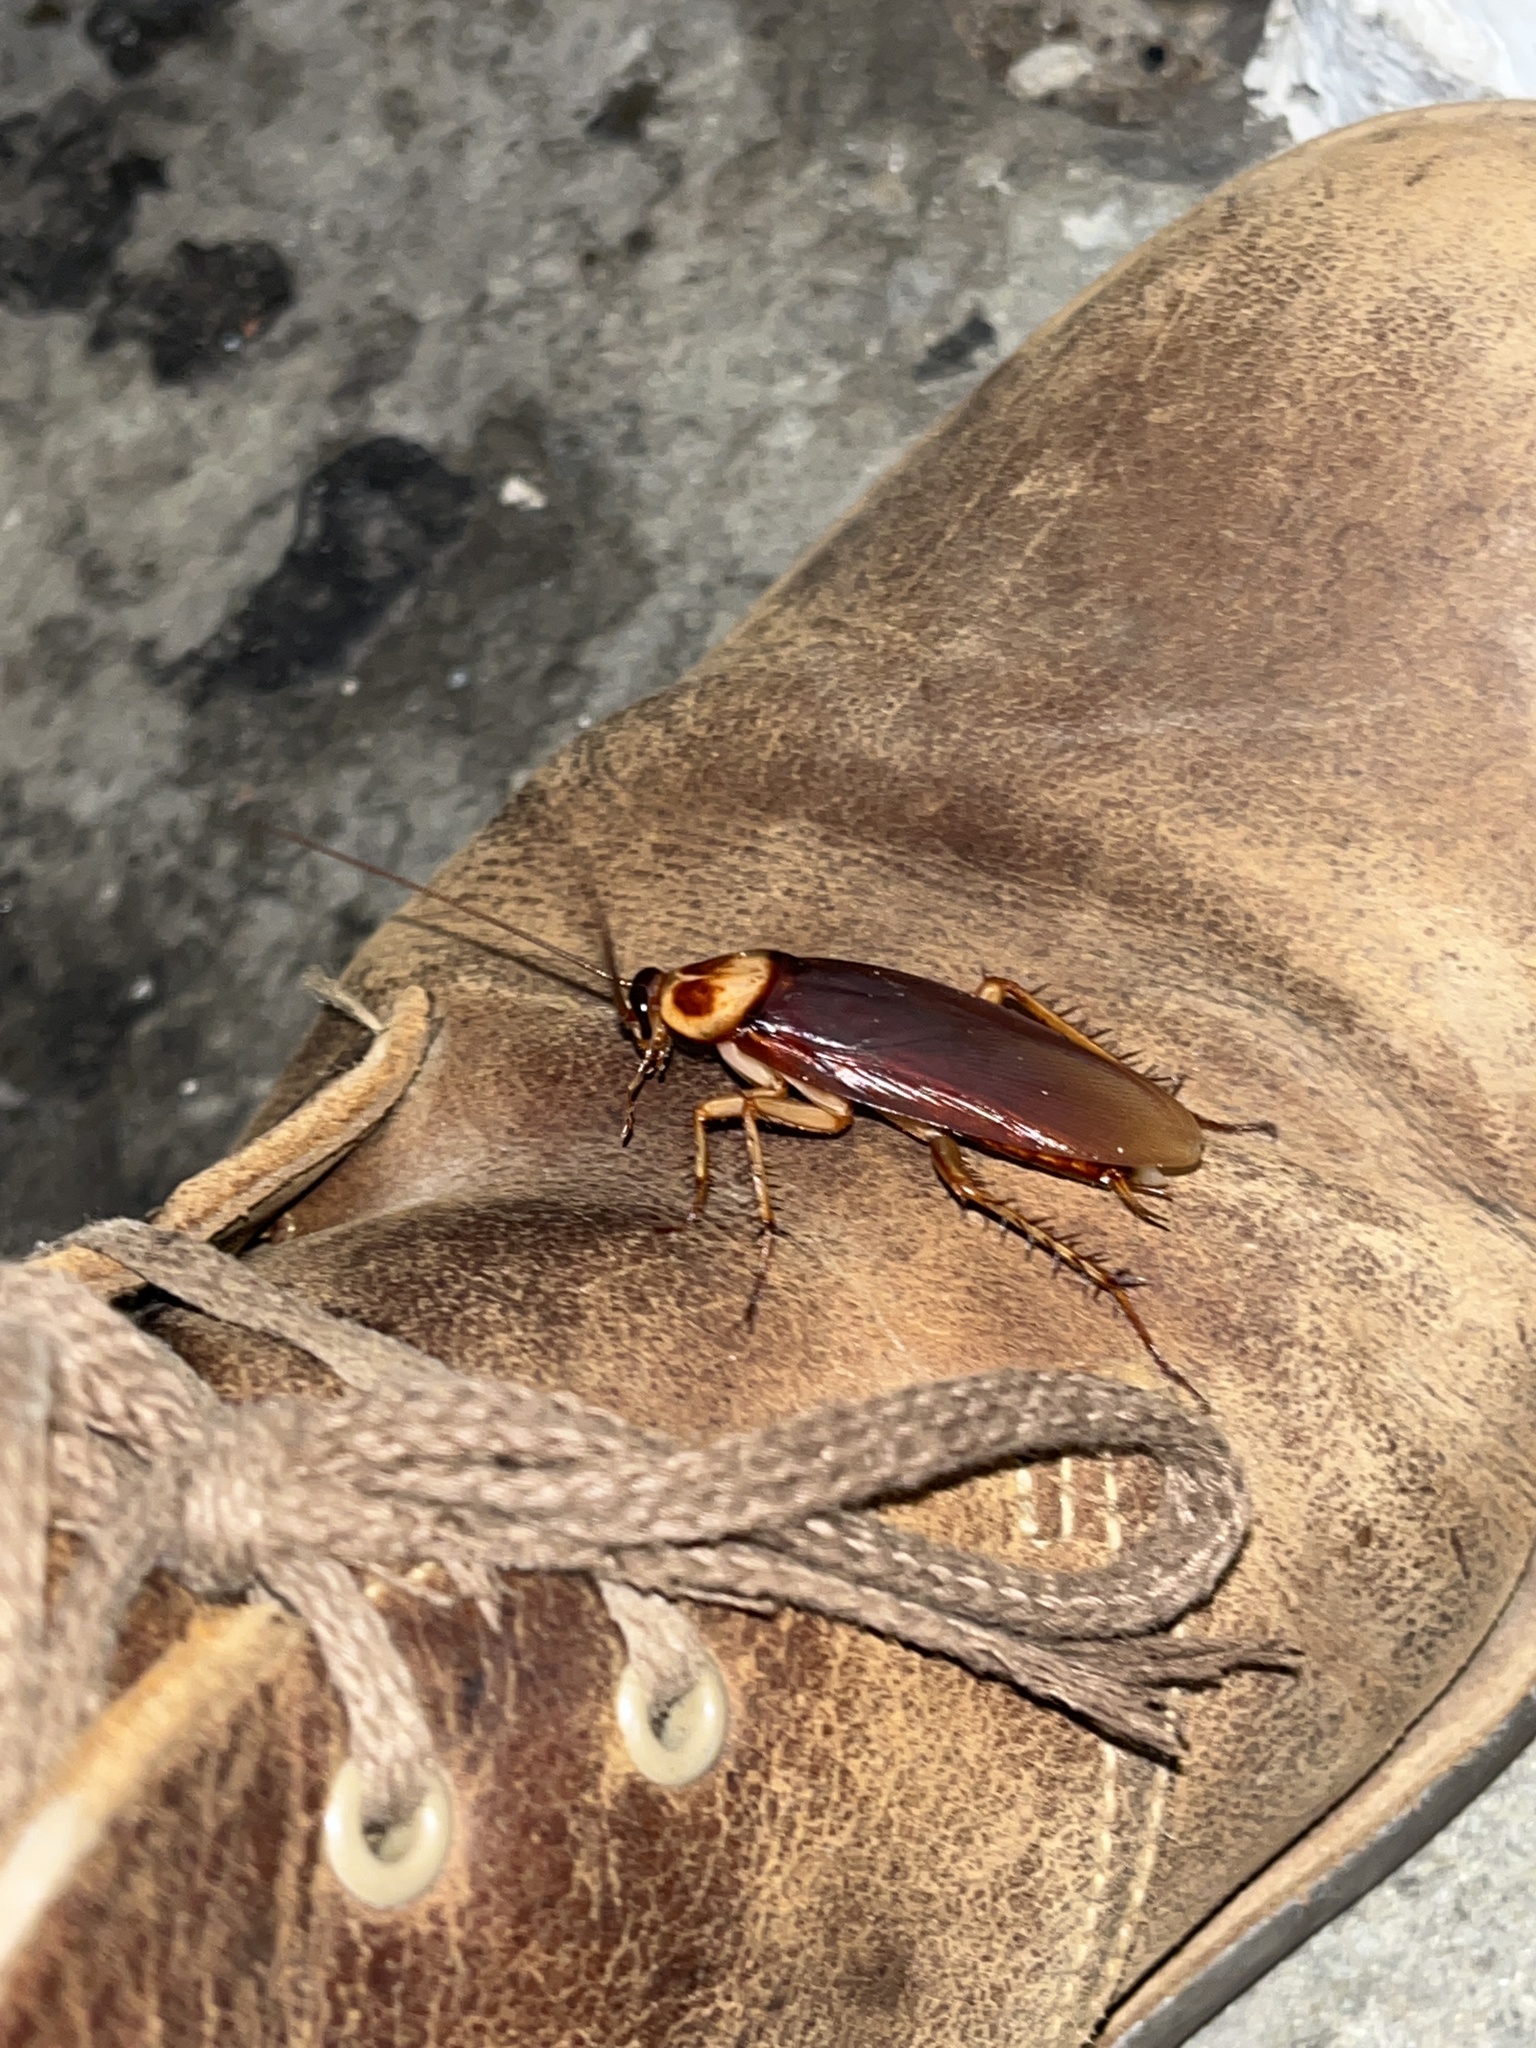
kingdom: Animalia
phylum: Arthropoda
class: Insecta
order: Blattodea
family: Blattidae
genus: Periplaneta
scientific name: Periplaneta americana
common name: American cockroach
